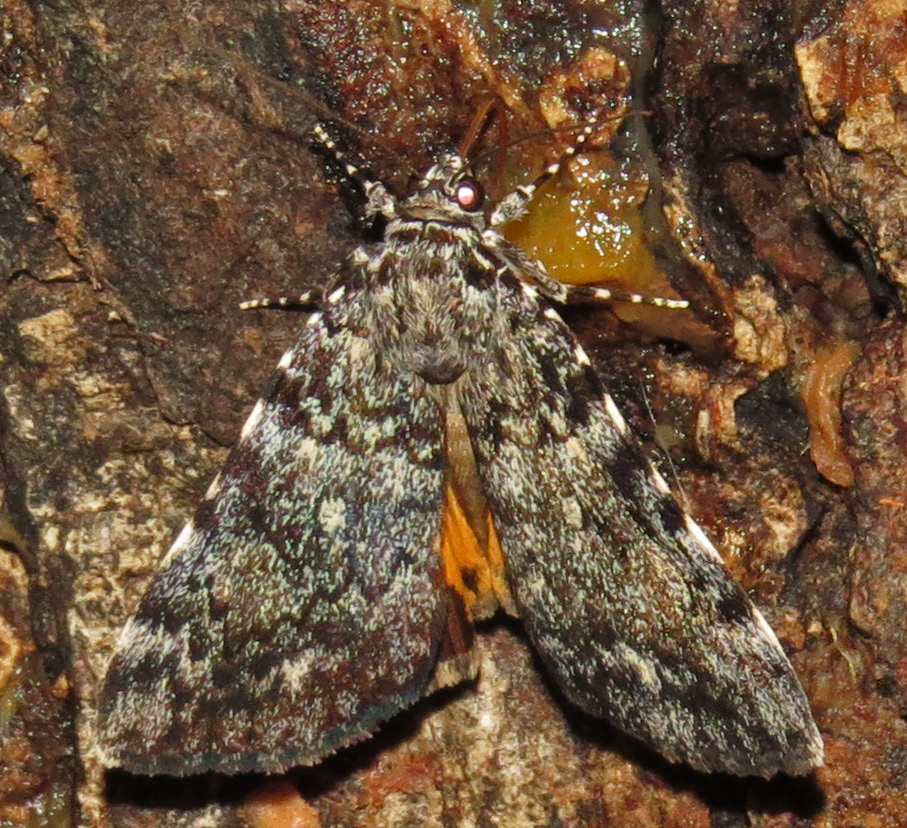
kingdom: Animalia
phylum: Arthropoda
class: Insecta
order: Lepidoptera
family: Erebidae
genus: Catocala
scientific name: Catocala lineella
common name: Little lined underwing
